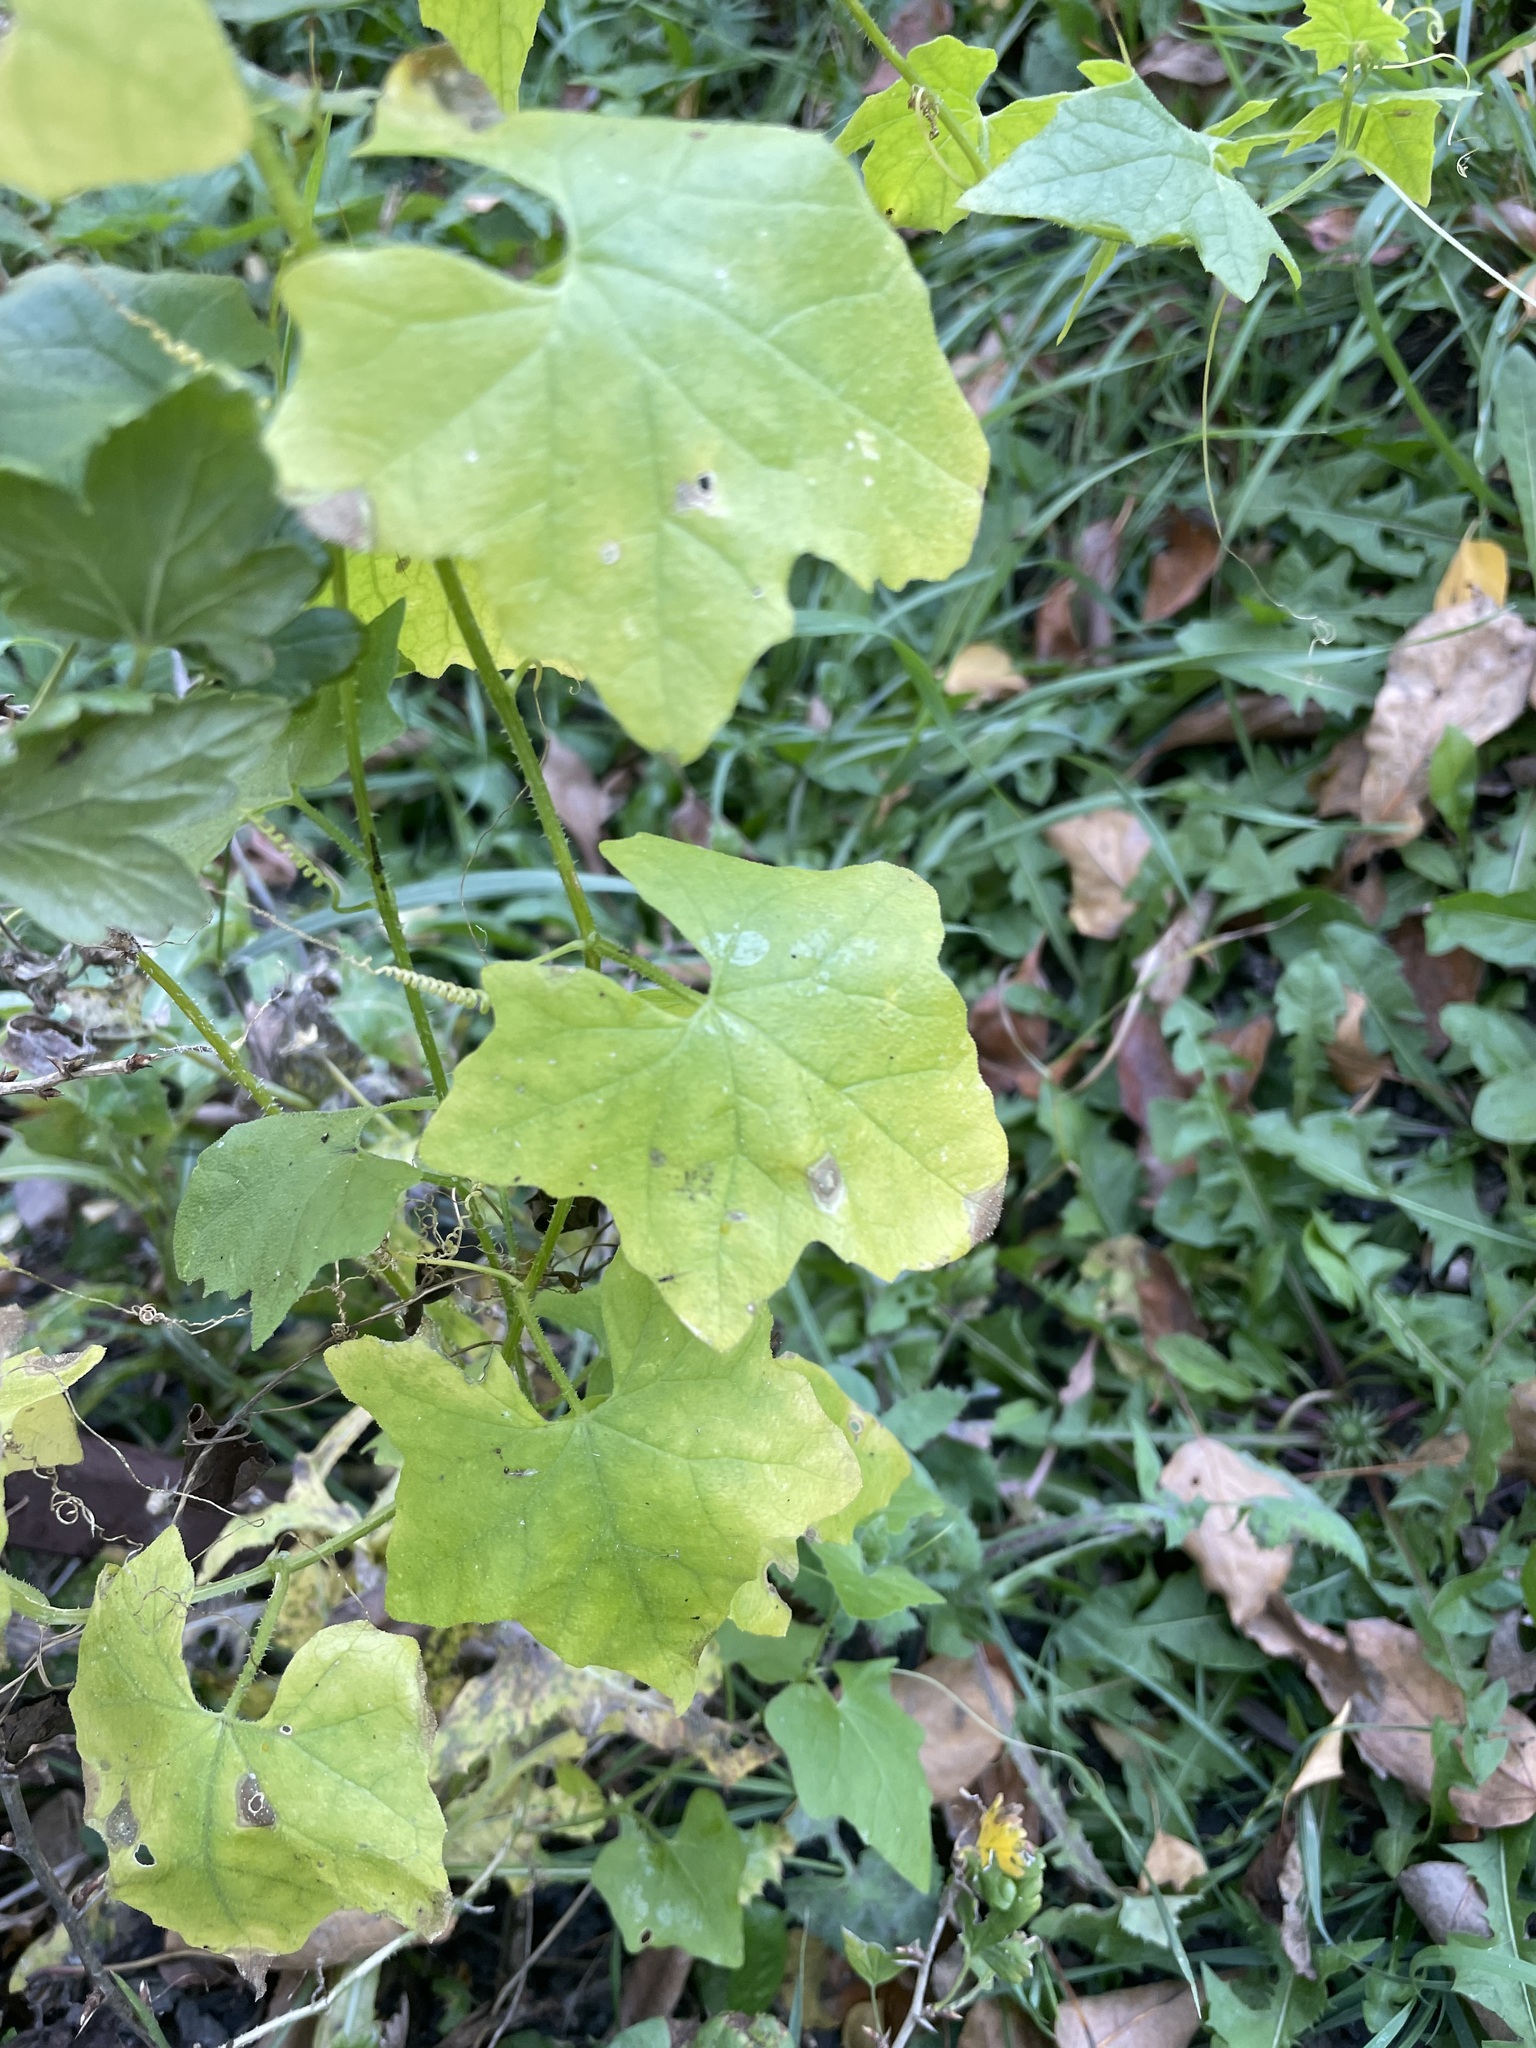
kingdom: Plantae
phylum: Tracheophyta
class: Magnoliopsida
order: Cucurbitales
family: Cucurbitaceae
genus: Echinocystis
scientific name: Echinocystis lobata
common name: Wild cucumber
